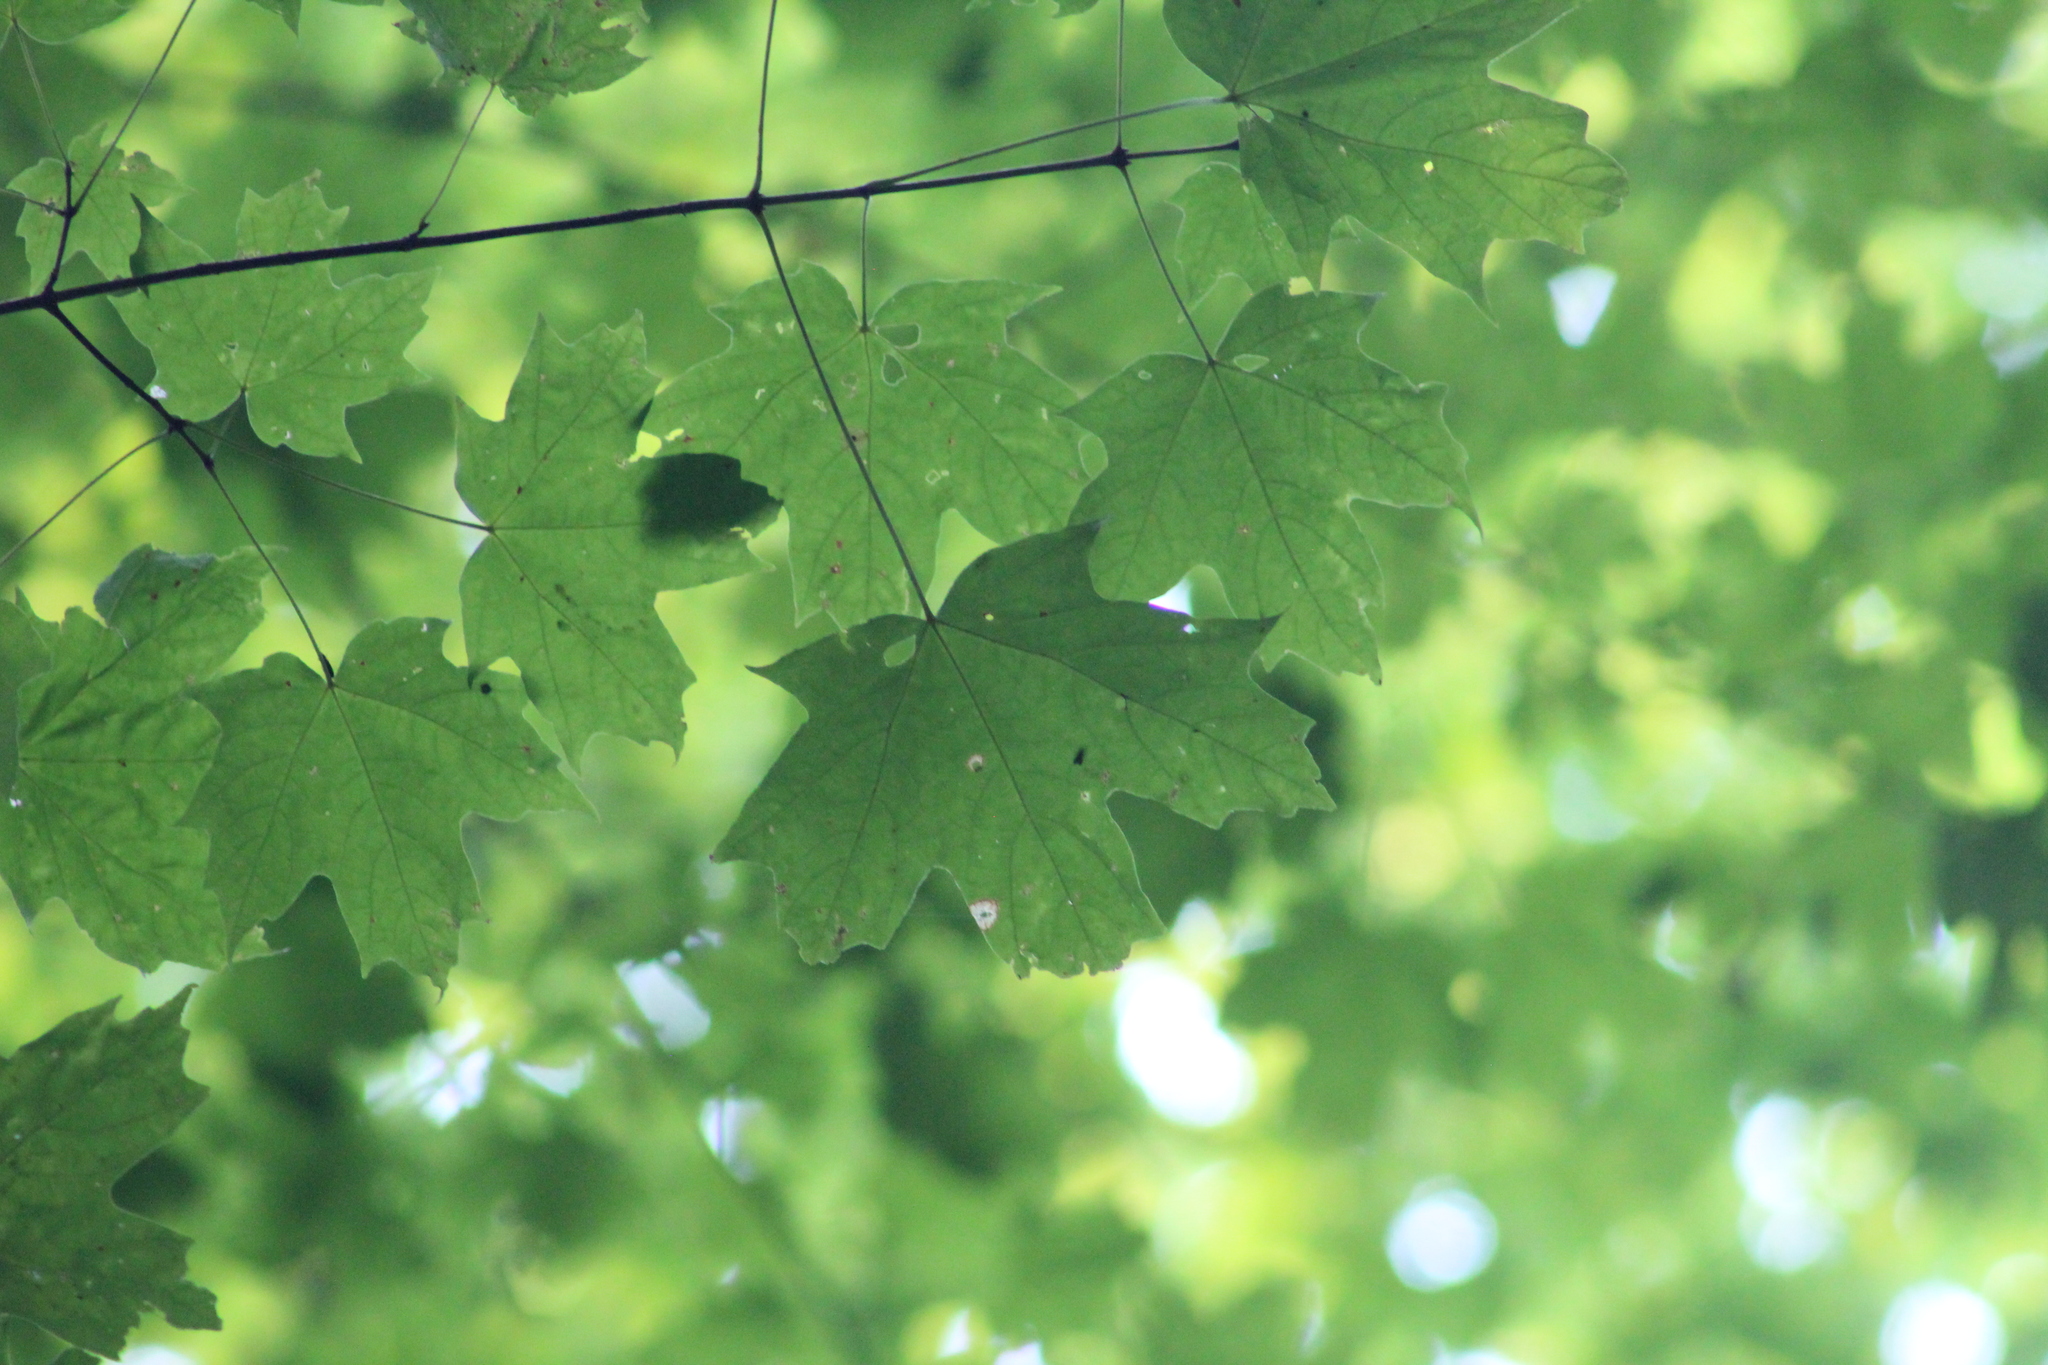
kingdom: Plantae
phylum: Tracheophyta
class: Magnoliopsida
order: Sapindales
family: Sapindaceae
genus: Acer
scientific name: Acer saccharum
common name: Sugar maple
